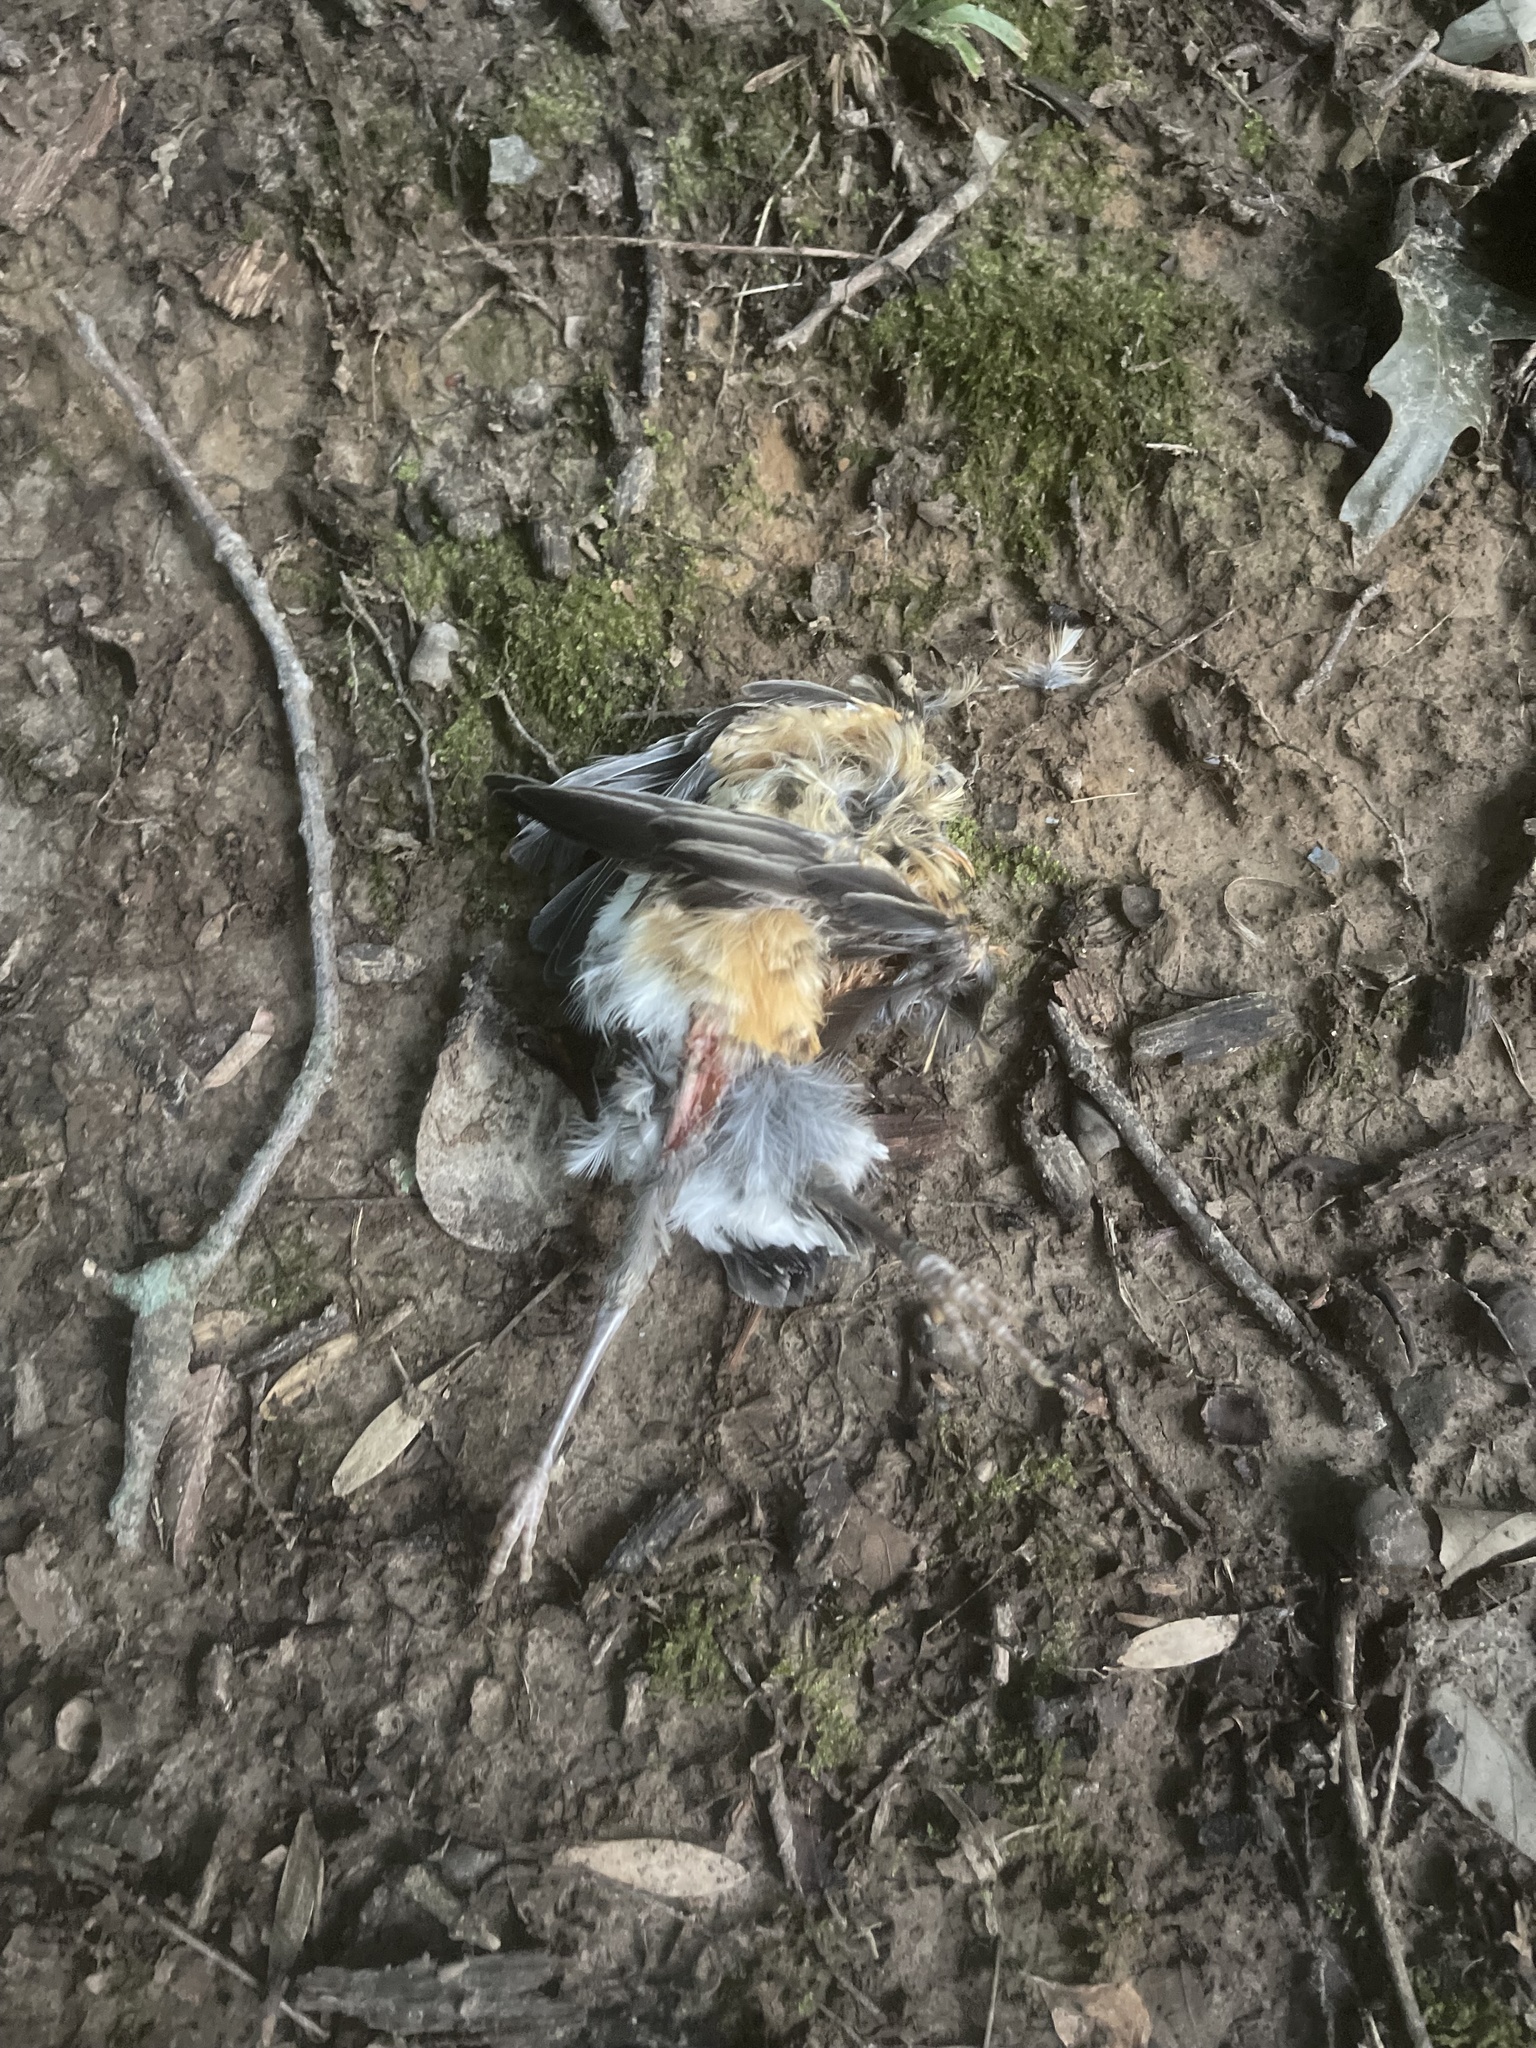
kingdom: Animalia
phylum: Chordata
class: Aves
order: Passeriformes
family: Turdidae
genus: Turdus
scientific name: Turdus migratorius
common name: American robin
